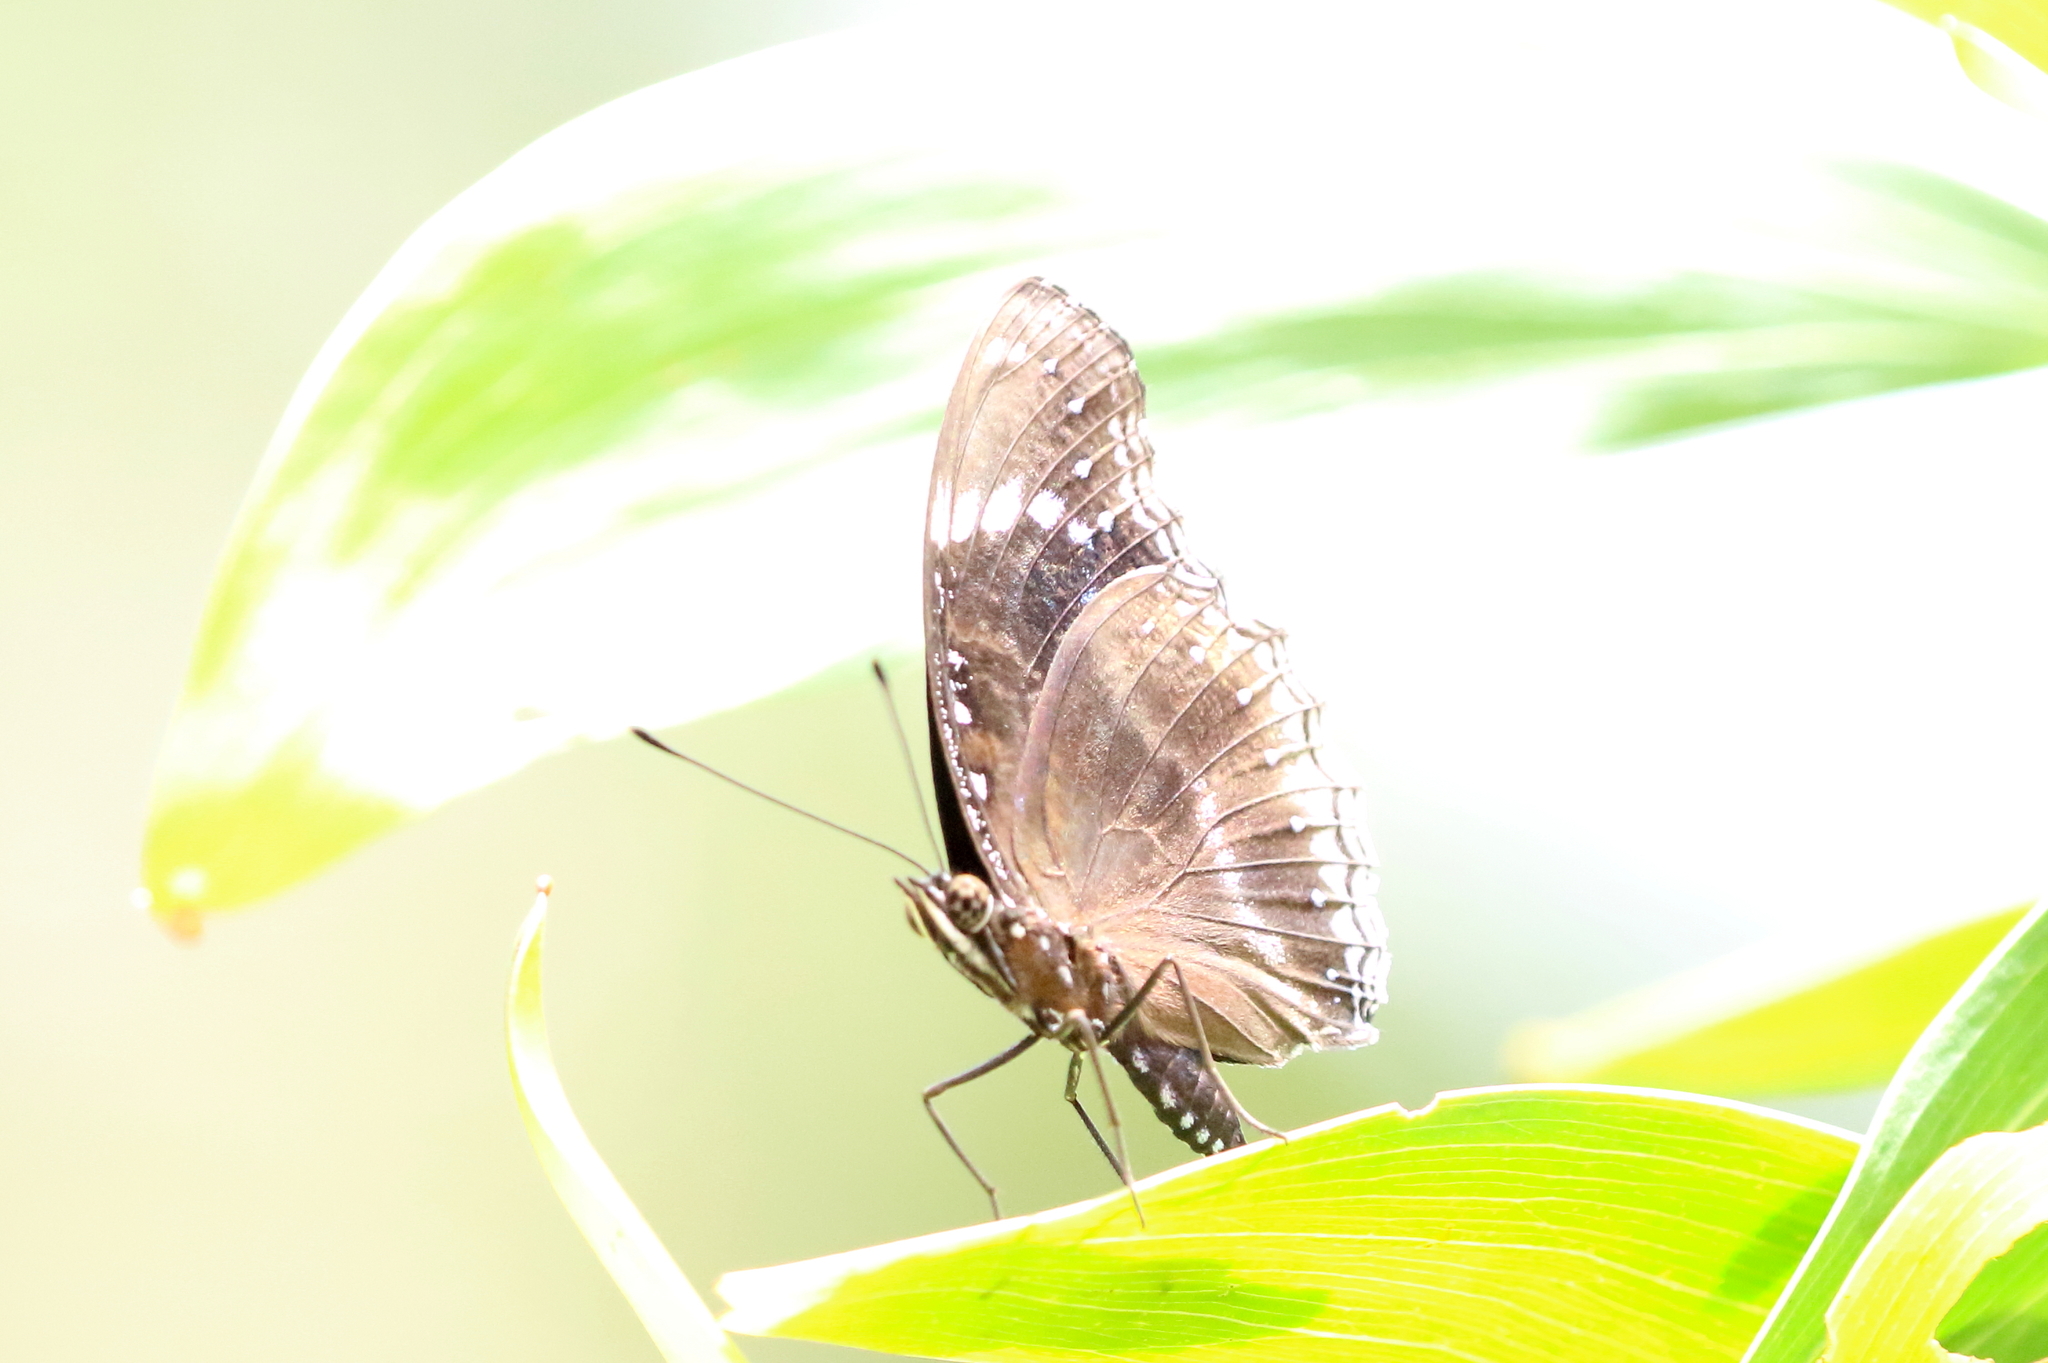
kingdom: Animalia
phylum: Arthropoda
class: Insecta
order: Lepidoptera
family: Nymphalidae
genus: Hypolimnas
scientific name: Hypolimnas alimena
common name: Blue-banded eggfly
